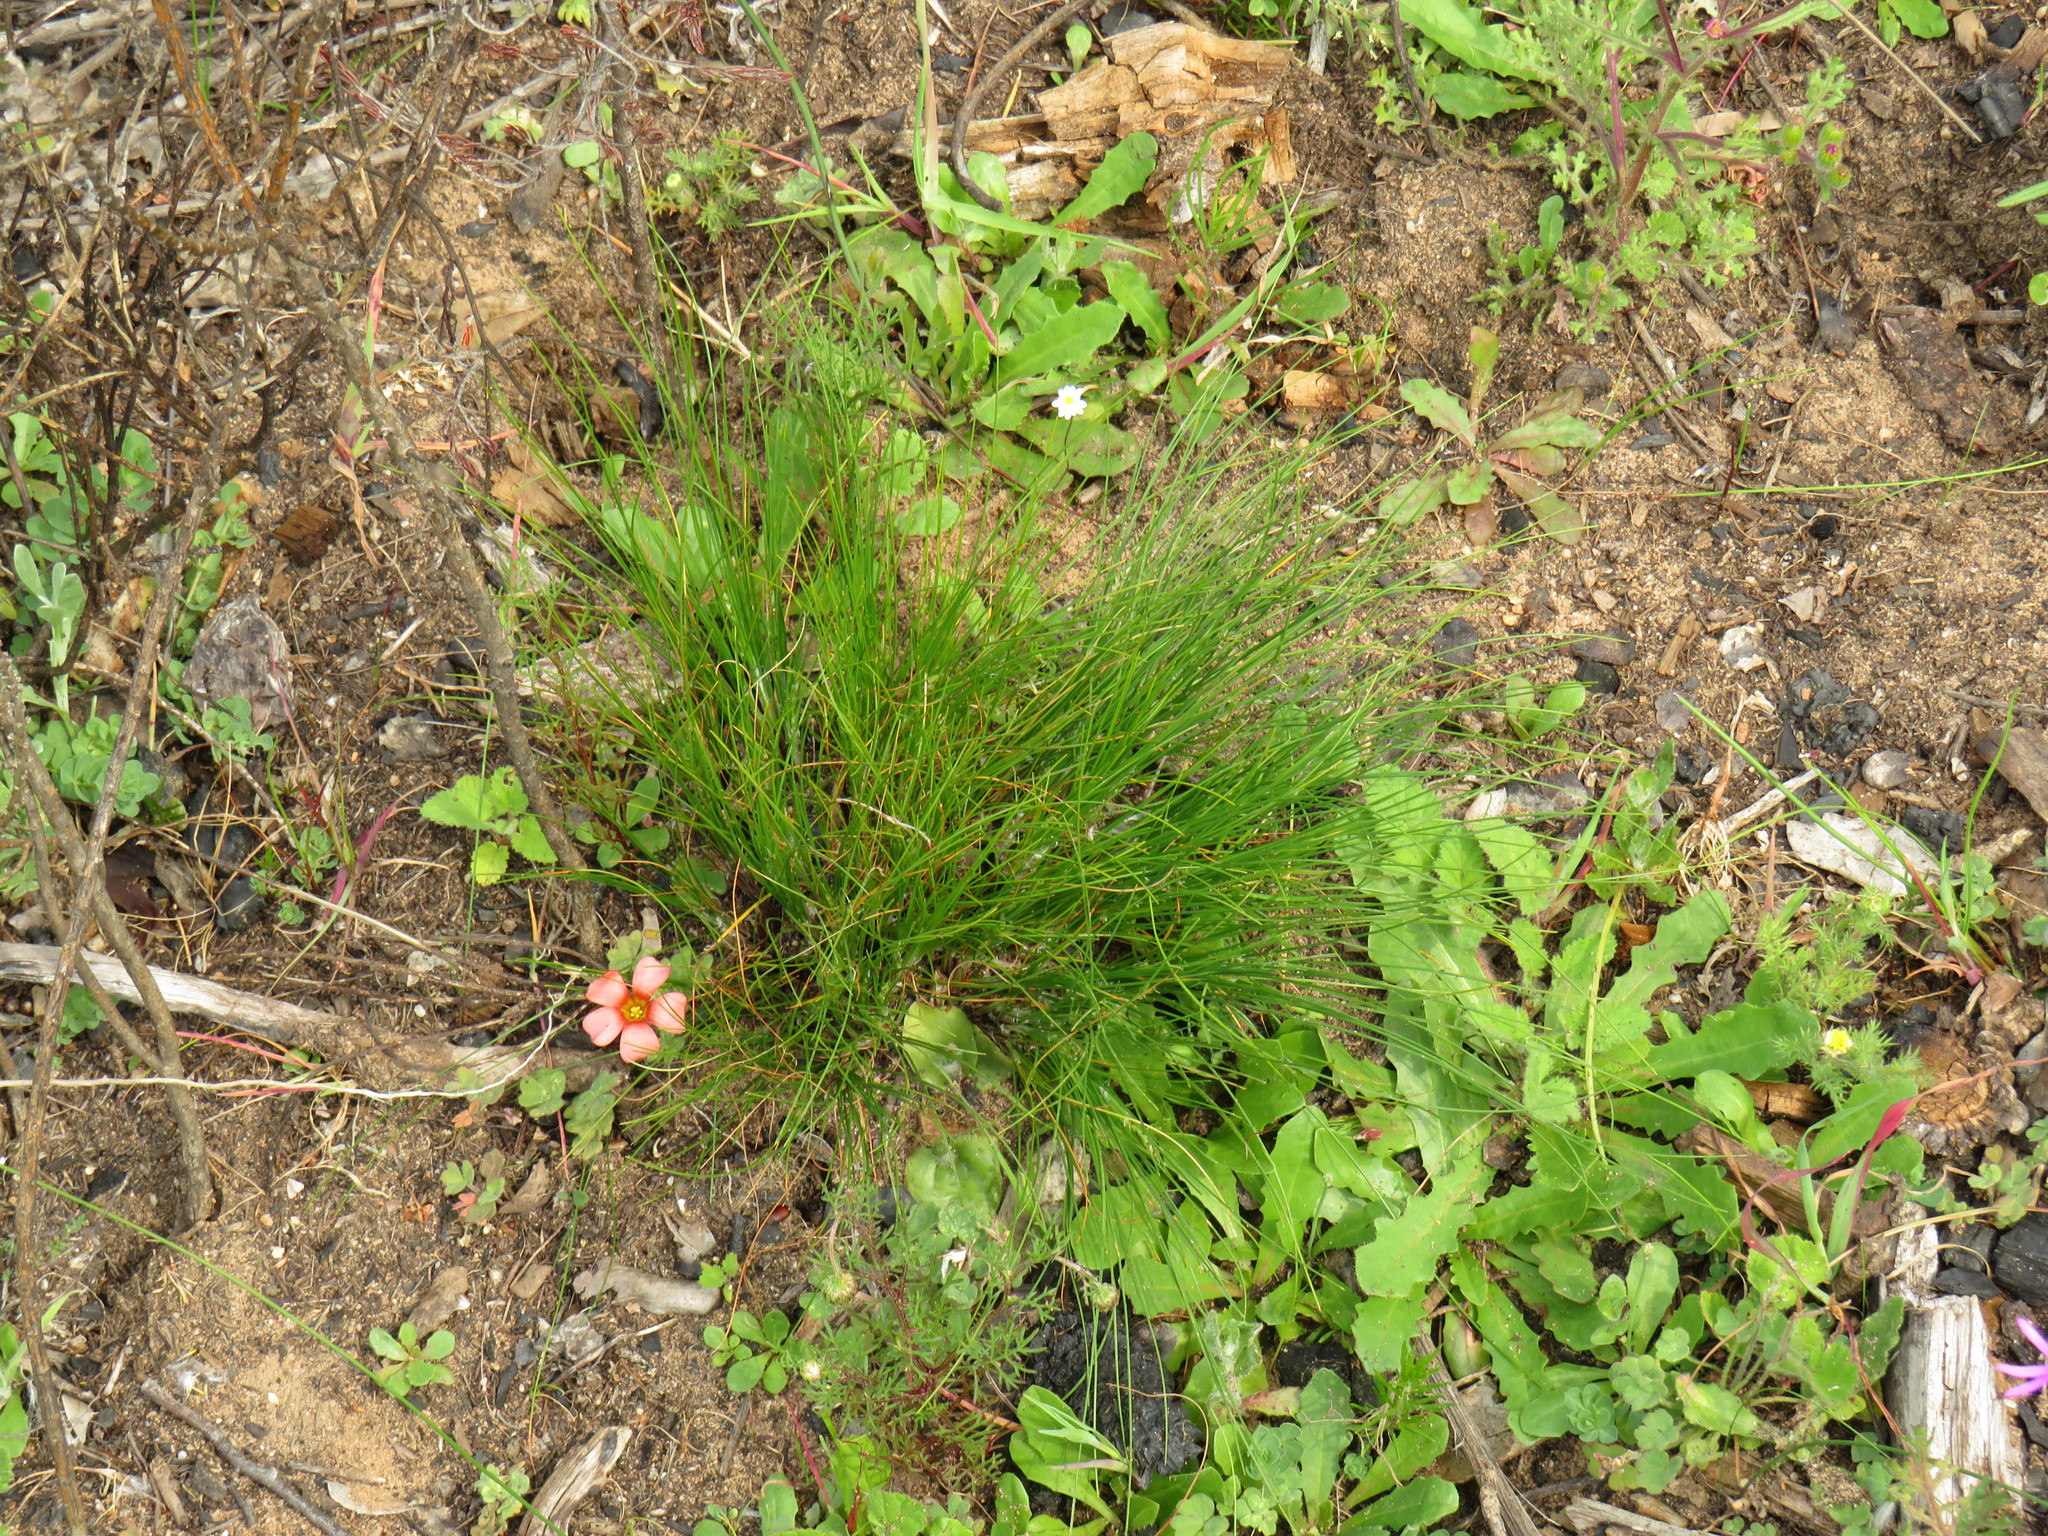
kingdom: Plantae
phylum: Tracheophyta
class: Liliopsida
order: Poales
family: Cyperaceae
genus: Ficinia
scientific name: Ficinia bulbosa
